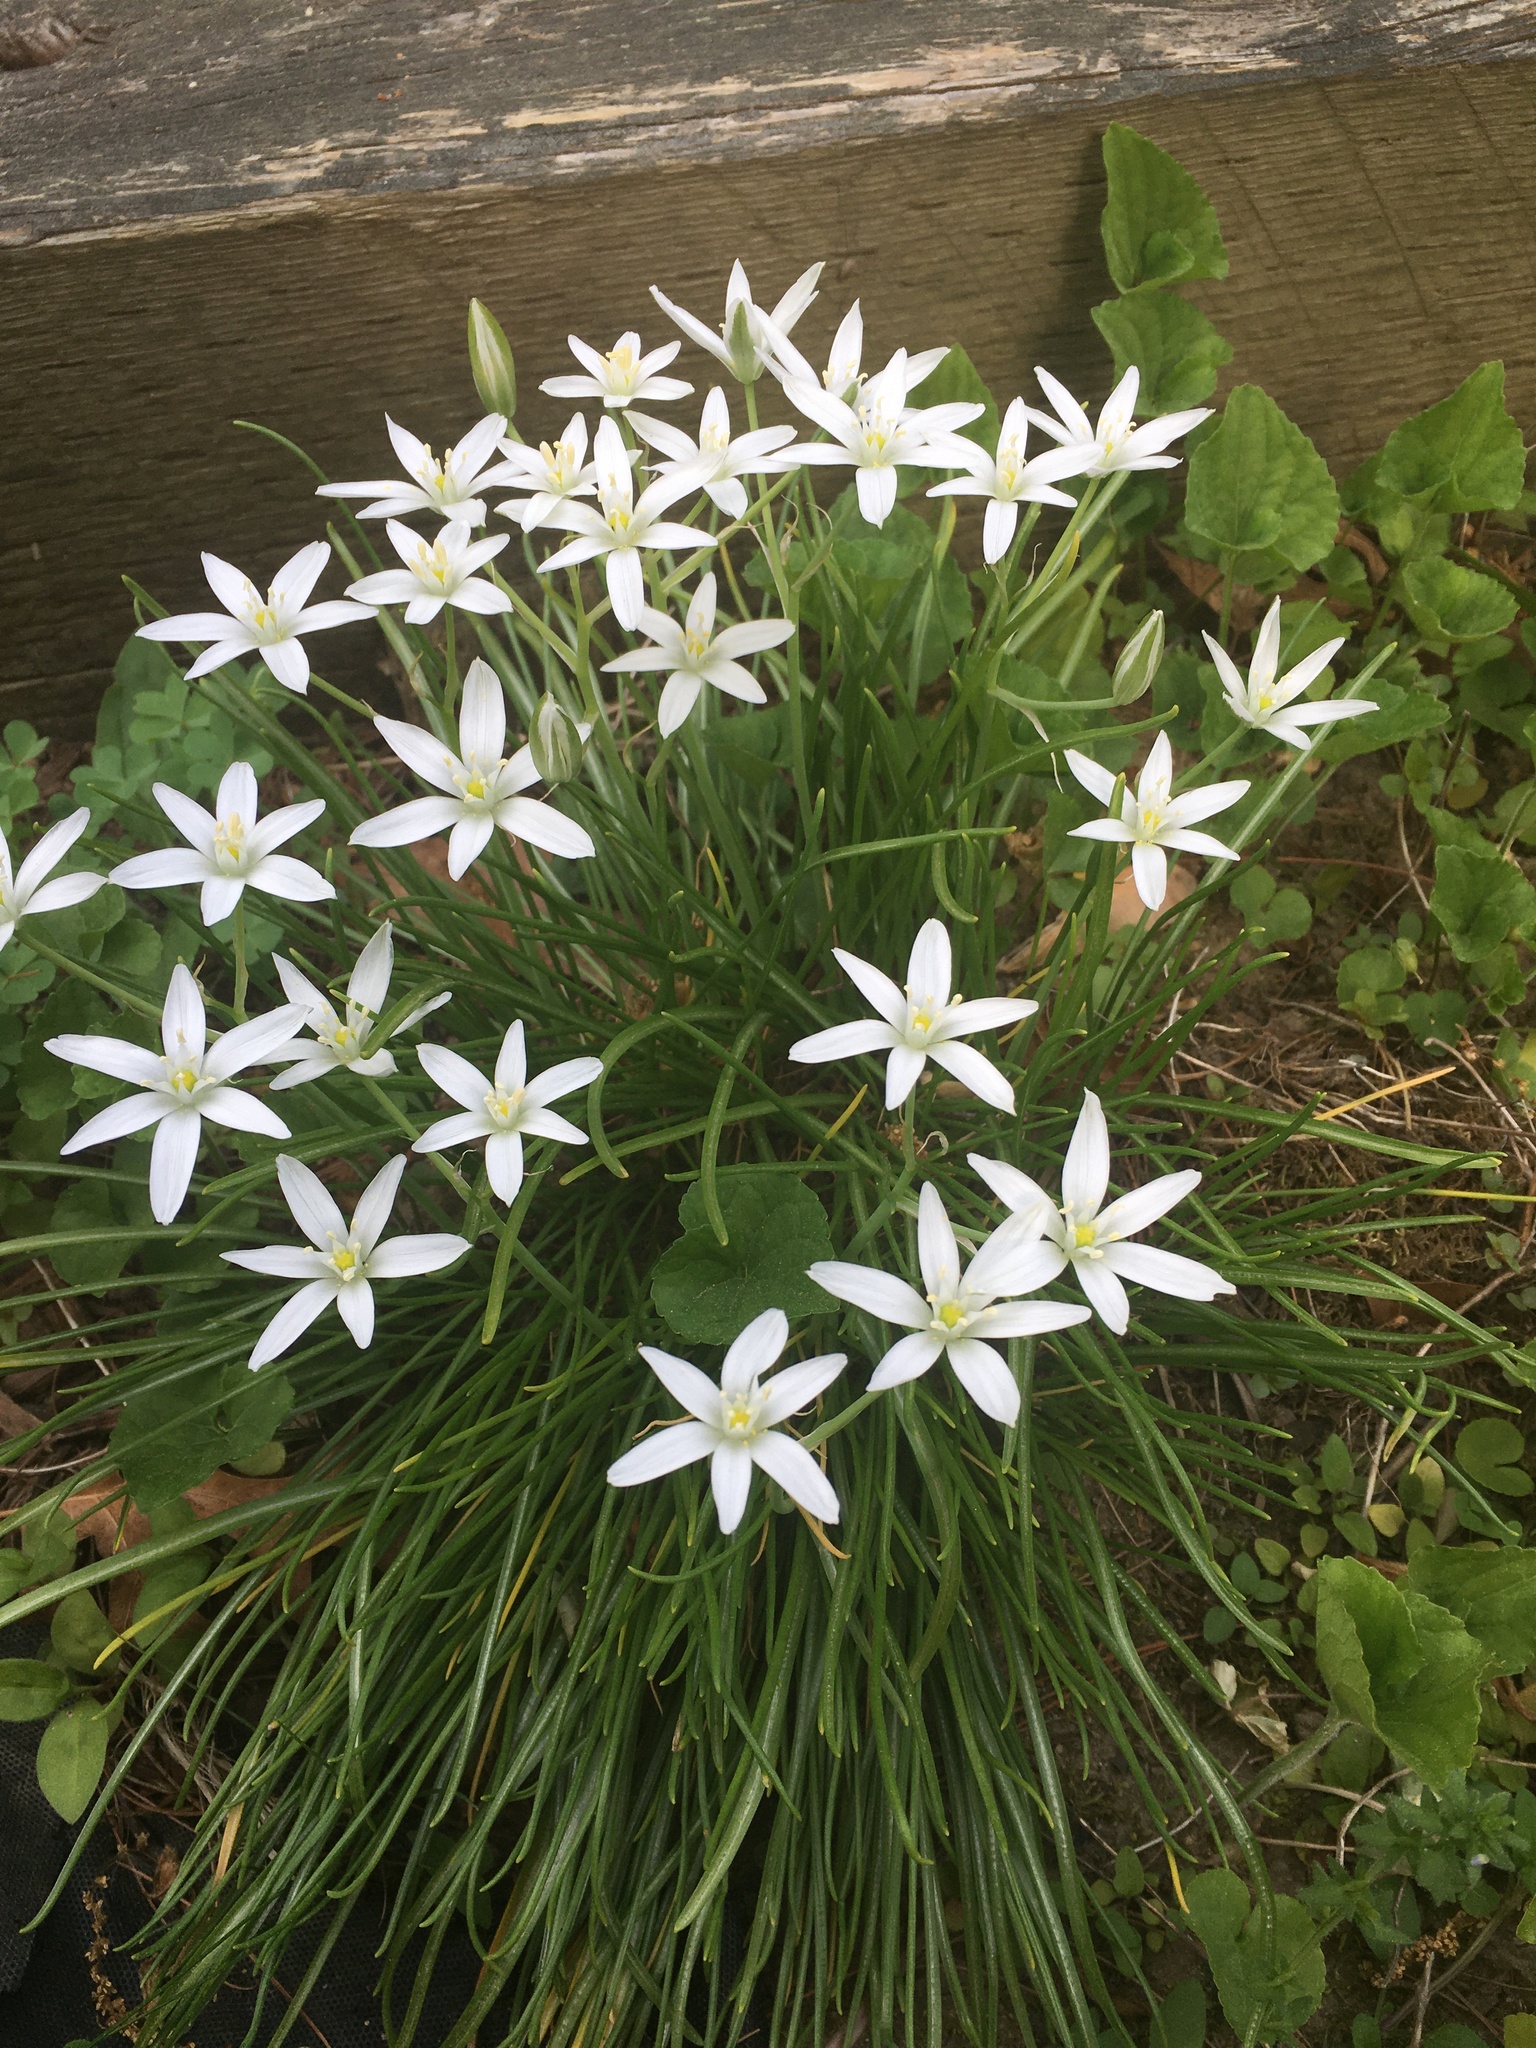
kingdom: Plantae
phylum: Tracheophyta
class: Liliopsida
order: Asparagales
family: Asparagaceae
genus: Ornithogalum
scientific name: Ornithogalum umbellatum
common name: Garden star-of-bethlehem
